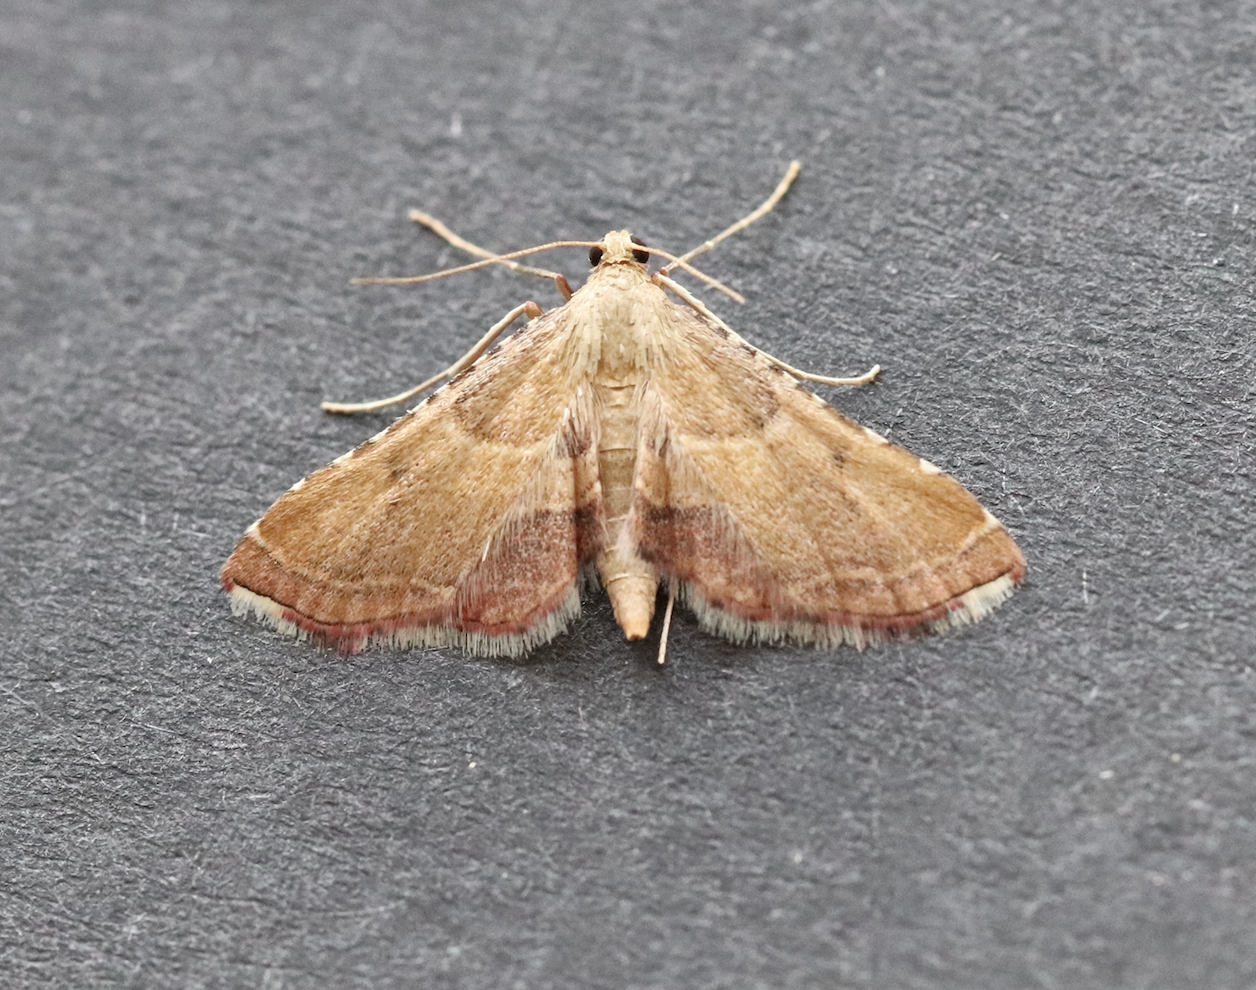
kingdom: Animalia
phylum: Arthropoda
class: Insecta
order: Lepidoptera
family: Pyralidae
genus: Endotricha
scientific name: Endotricha flammealis
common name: Rosy tabby
